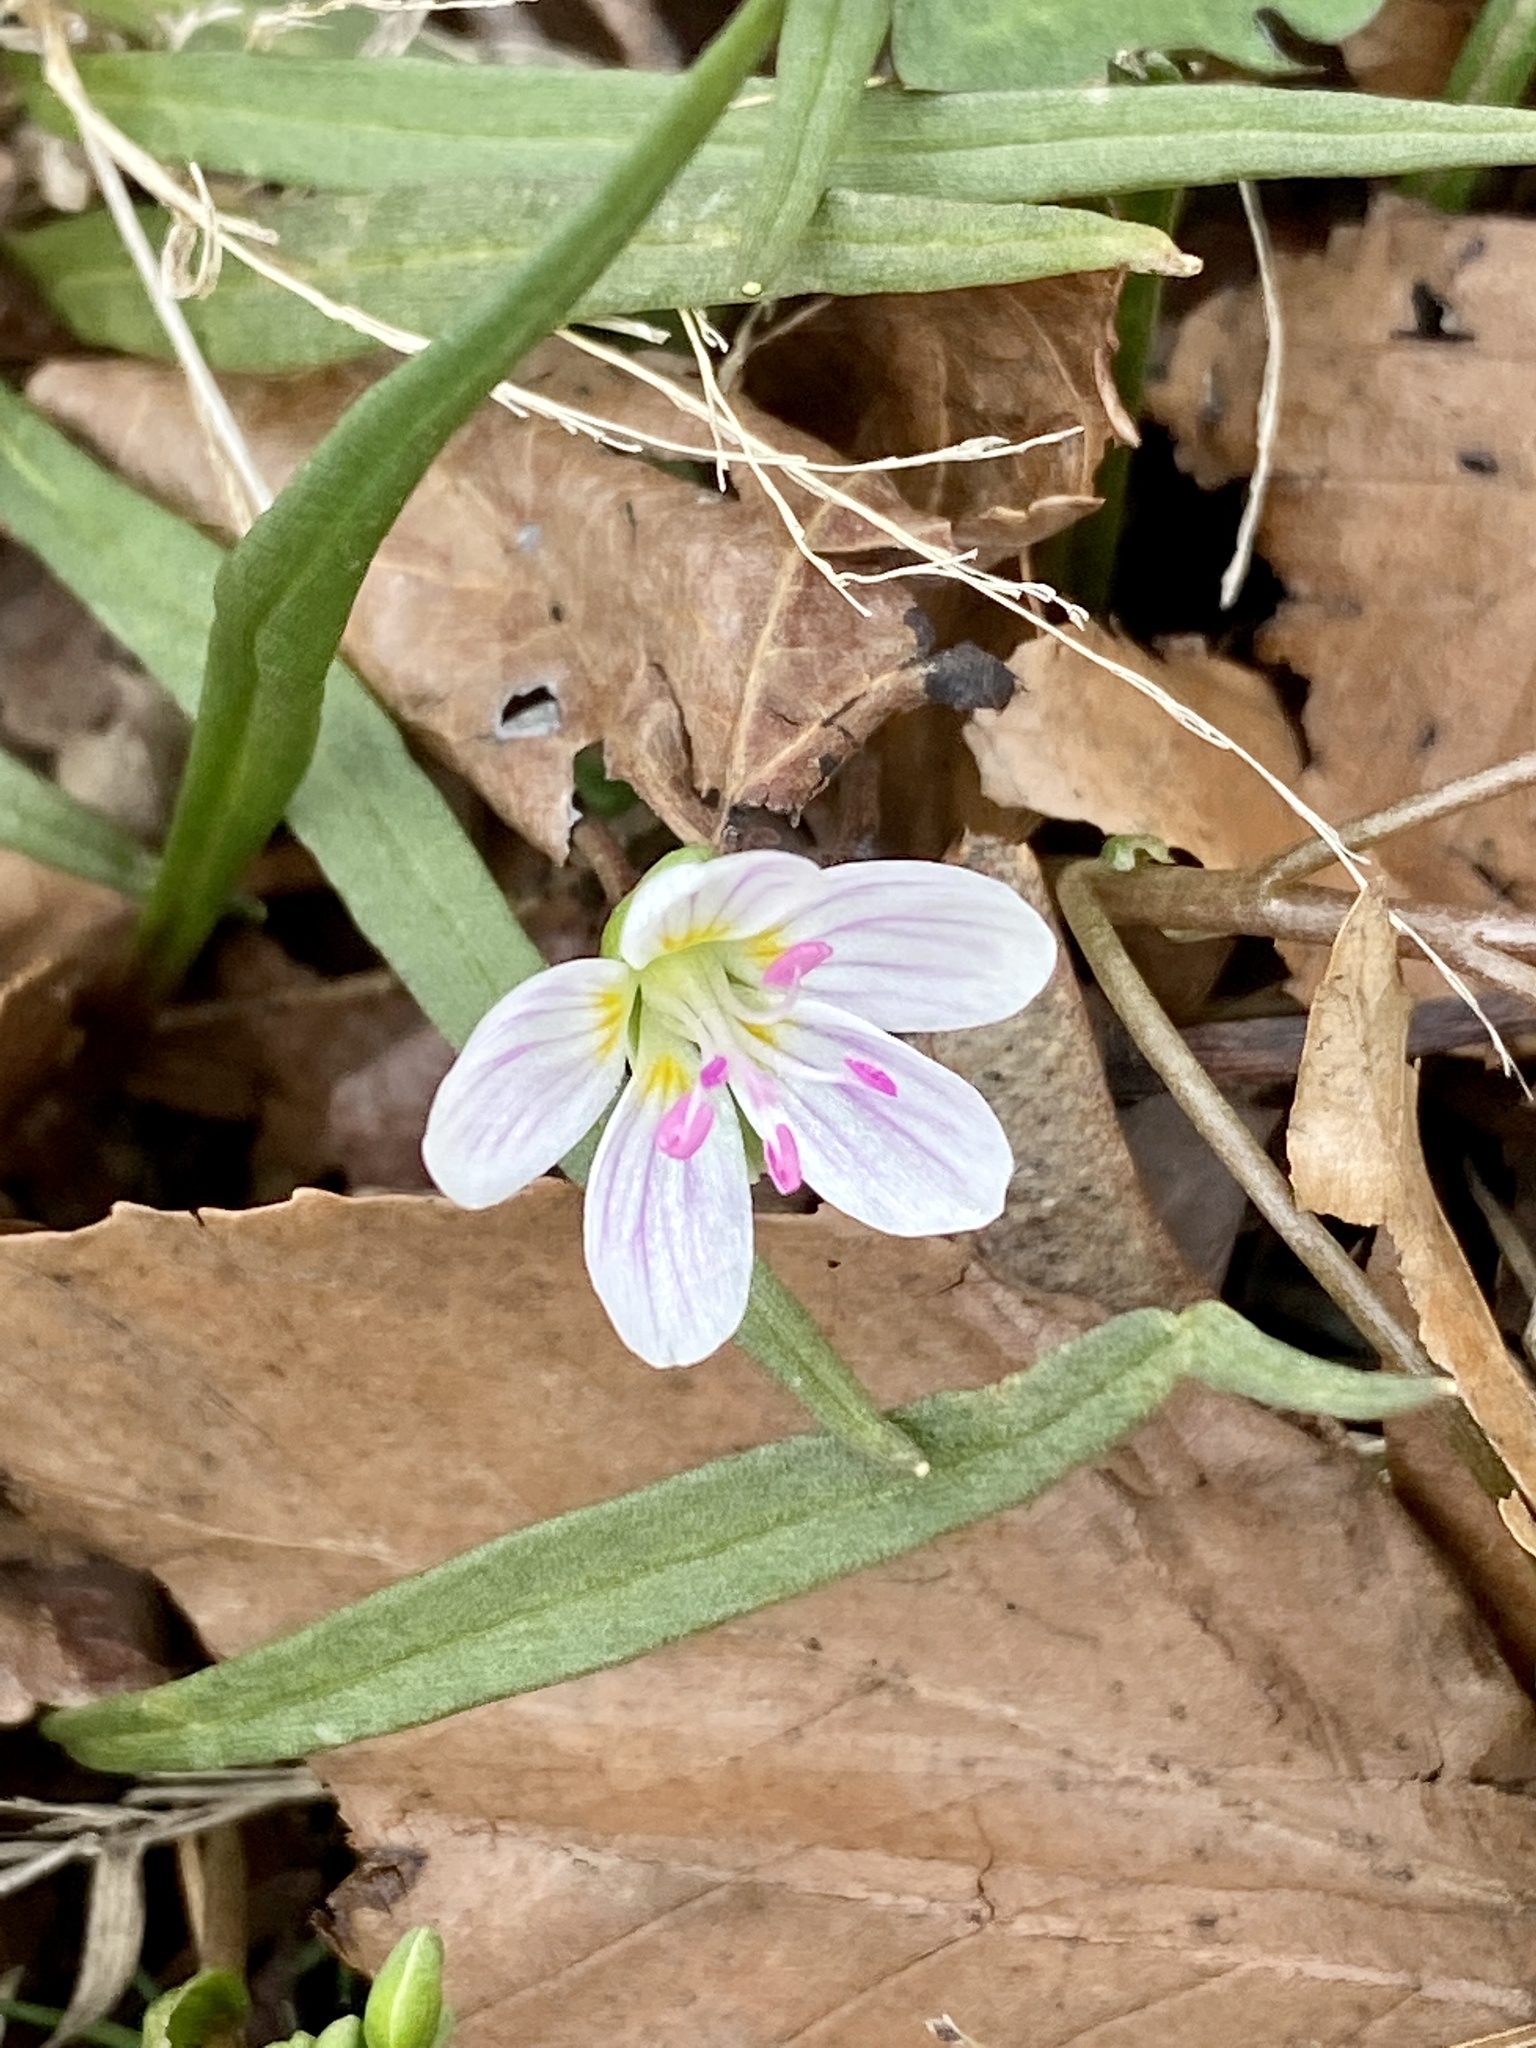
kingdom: Plantae
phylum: Tracheophyta
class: Magnoliopsida
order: Caryophyllales
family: Montiaceae
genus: Claytonia
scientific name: Claytonia virginica
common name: Virginia springbeauty
